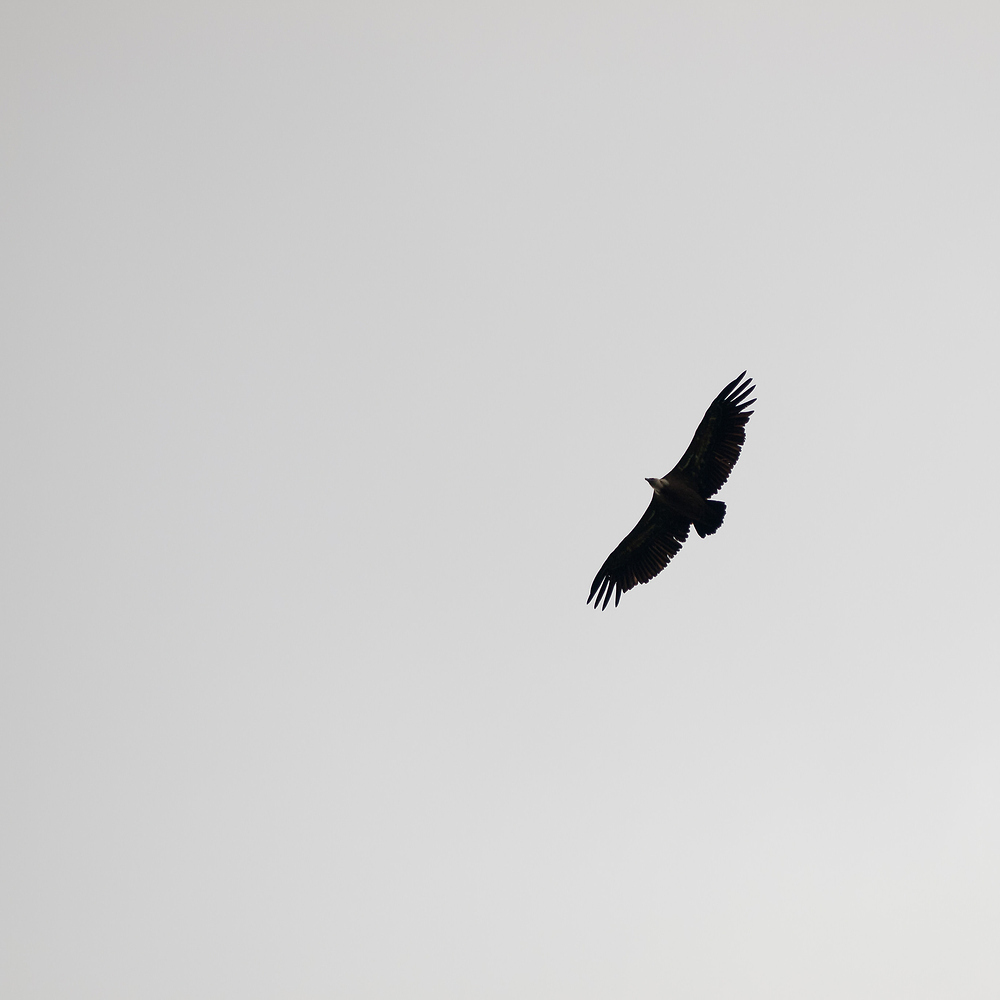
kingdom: Animalia
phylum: Chordata
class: Aves
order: Accipitriformes
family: Accipitridae
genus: Gyps
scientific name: Gyps fulvus
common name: Griffon vulture
